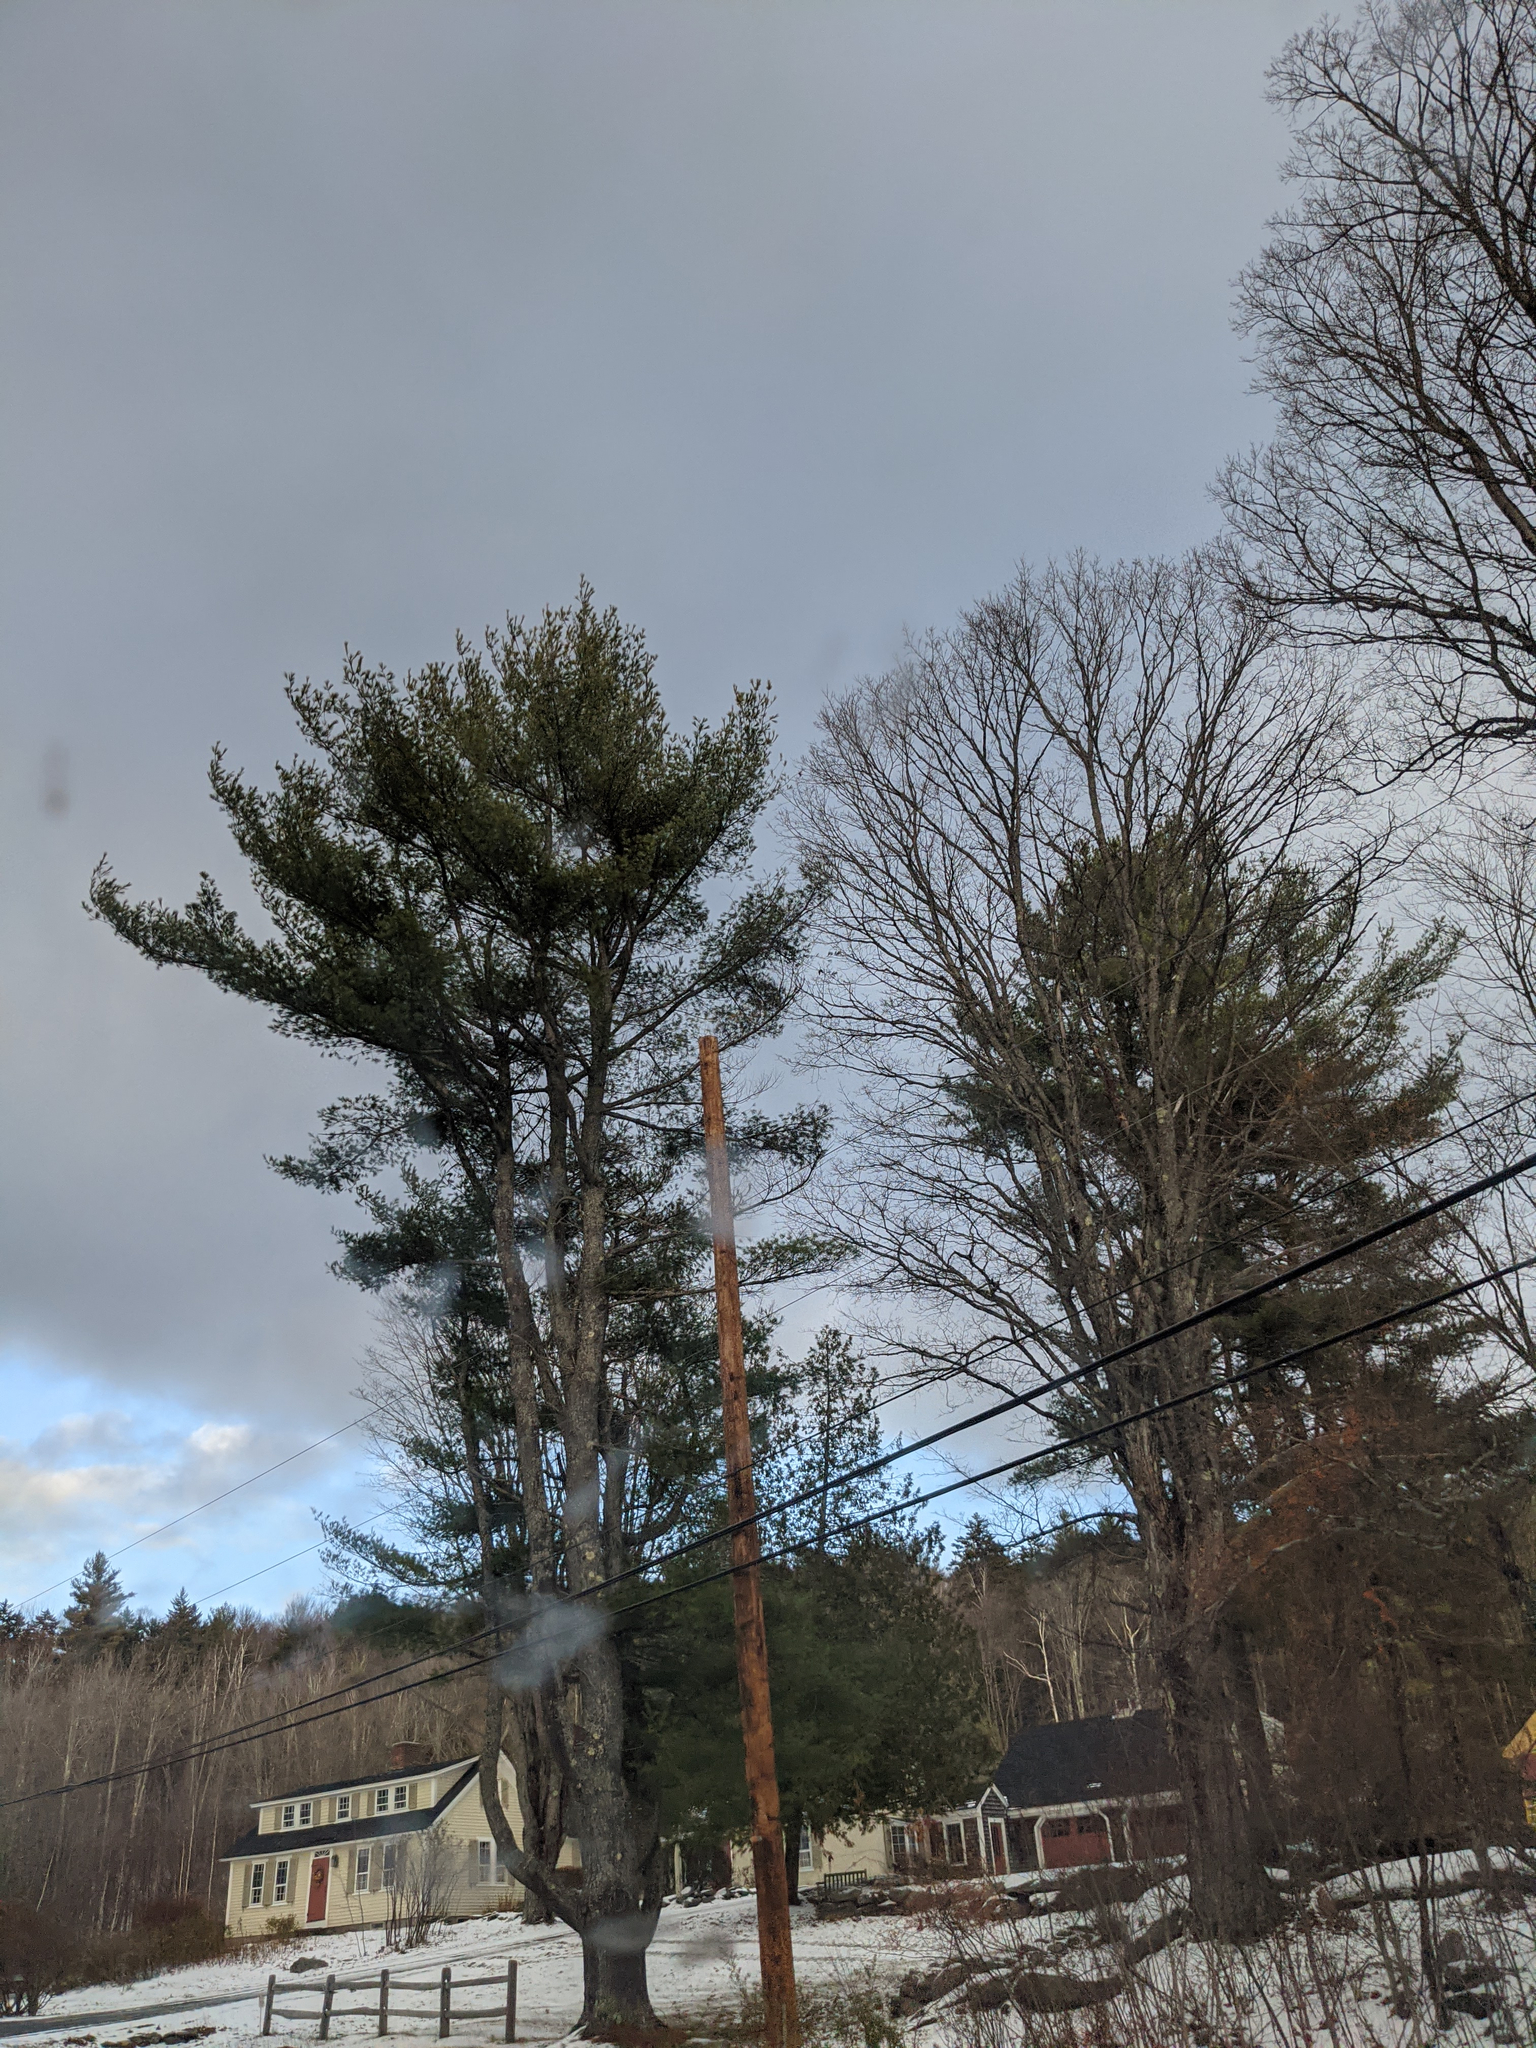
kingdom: Plantae
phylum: Tracheophyta
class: Pinopsida
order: Pinales
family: Pinaceae
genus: Pinus
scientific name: Pinus strobus
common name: Weymouth pine
